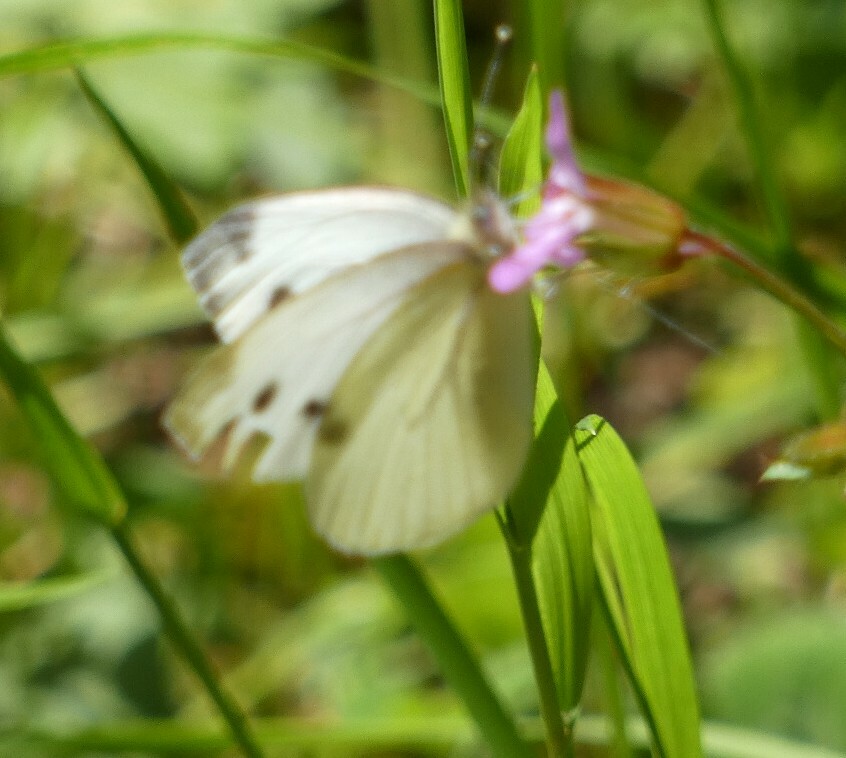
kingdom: Animalia
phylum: Arthropoda
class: Insecta
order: Lepidoptera
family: Pieridae
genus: Pieris
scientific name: Pieris napi
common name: Green-veined white
